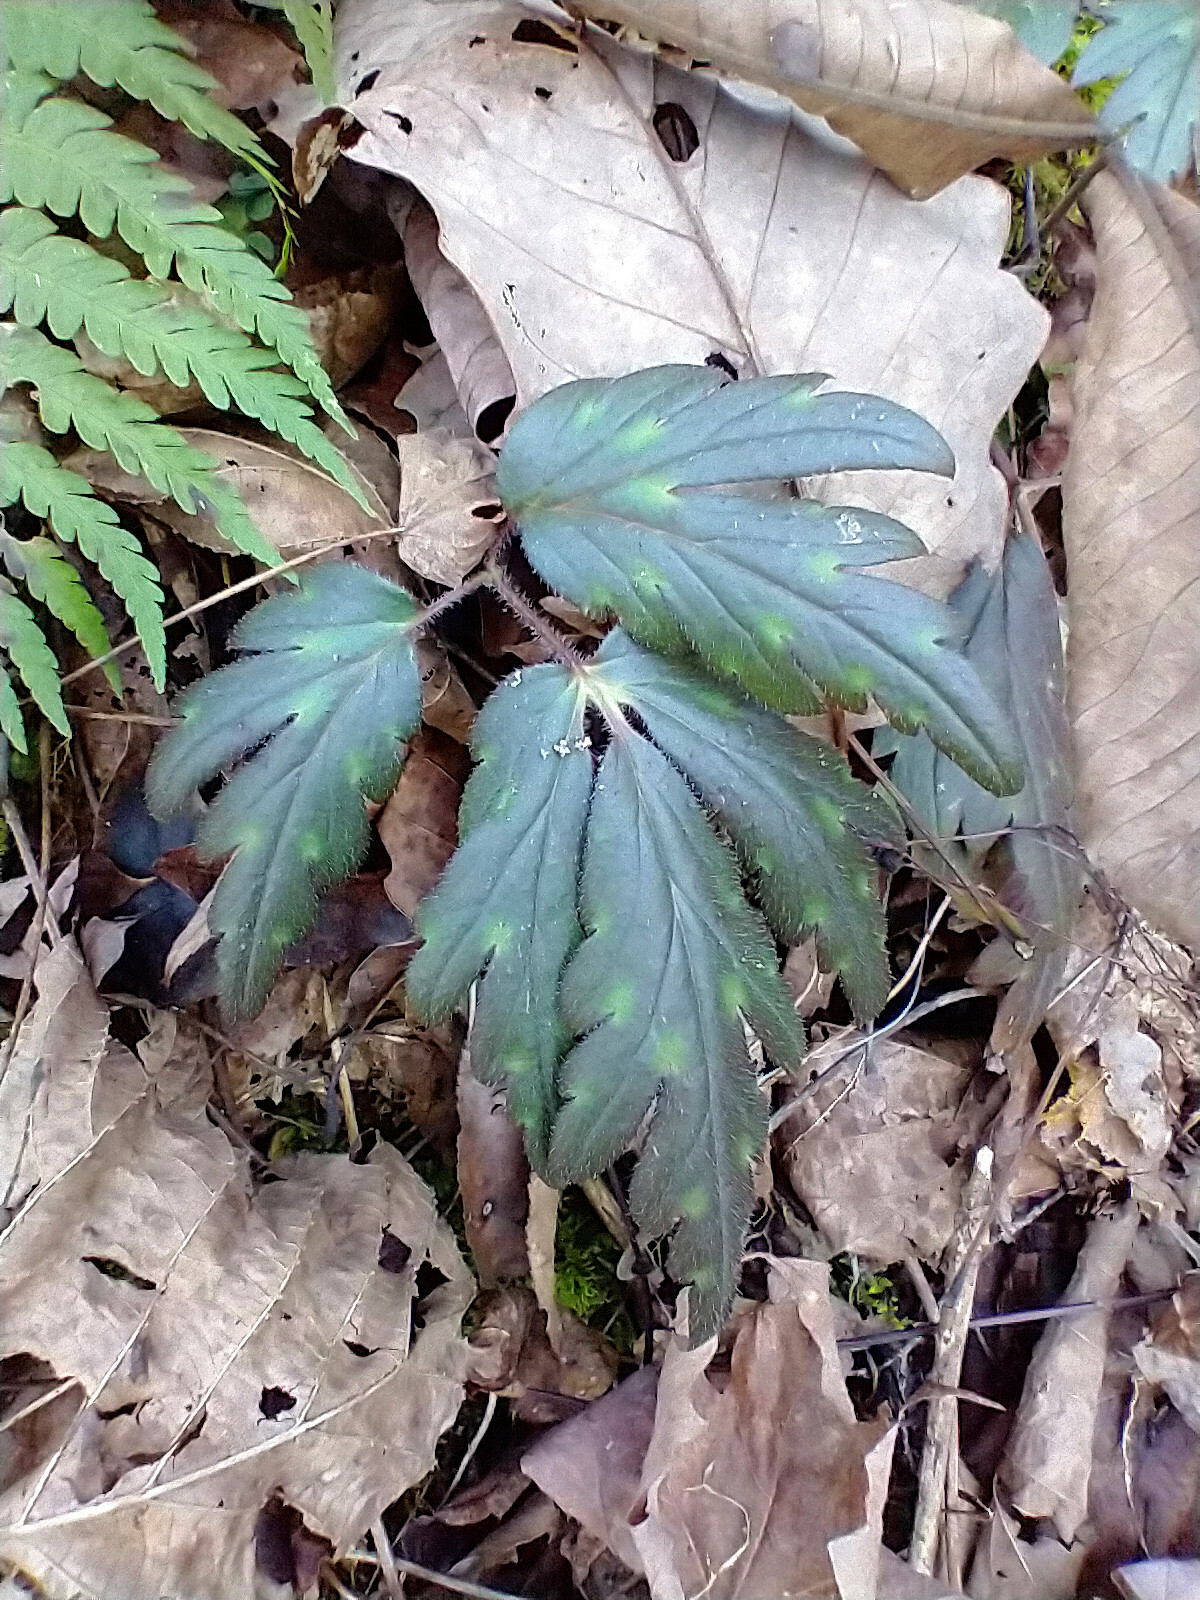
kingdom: Plantae
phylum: Tracheophyta
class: Magnoliopsida
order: Boraginales
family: Hydrophyllaceae
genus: Phacelia
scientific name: Phacelia bipinnatifida
